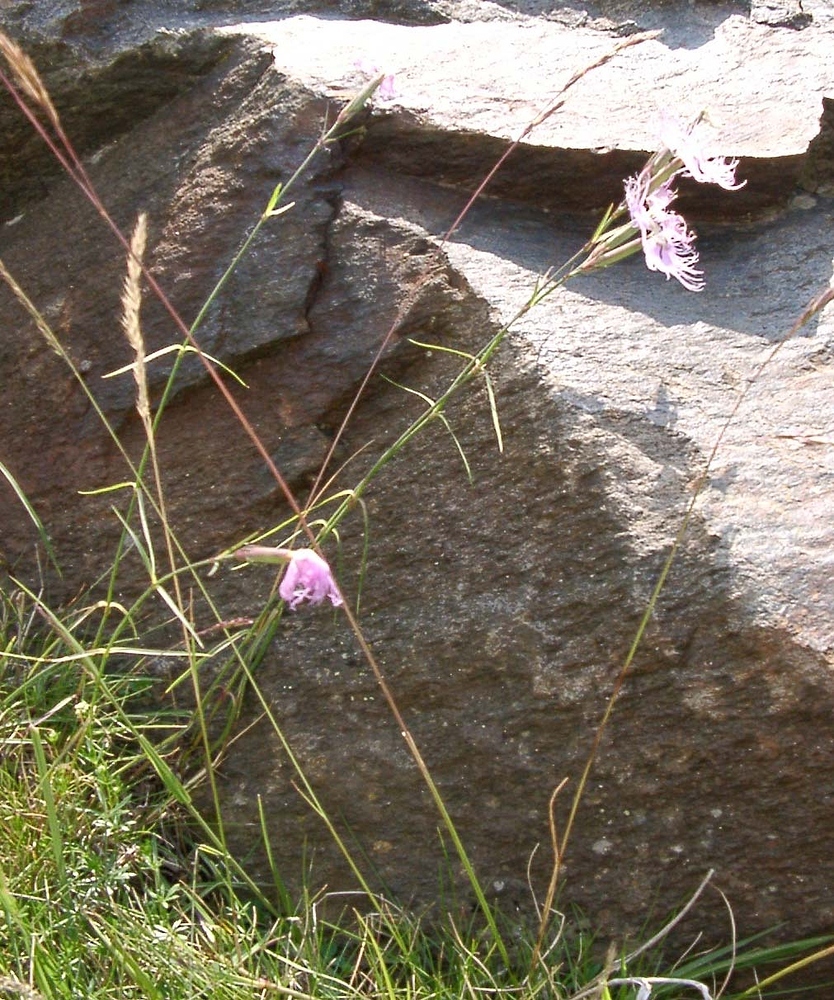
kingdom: Plantae
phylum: Tracheophyta
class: Magnoliopsida
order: Caryophyllales
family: Caryophyllaceae
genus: Dianthus
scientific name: Dianthus hyssopifolius
